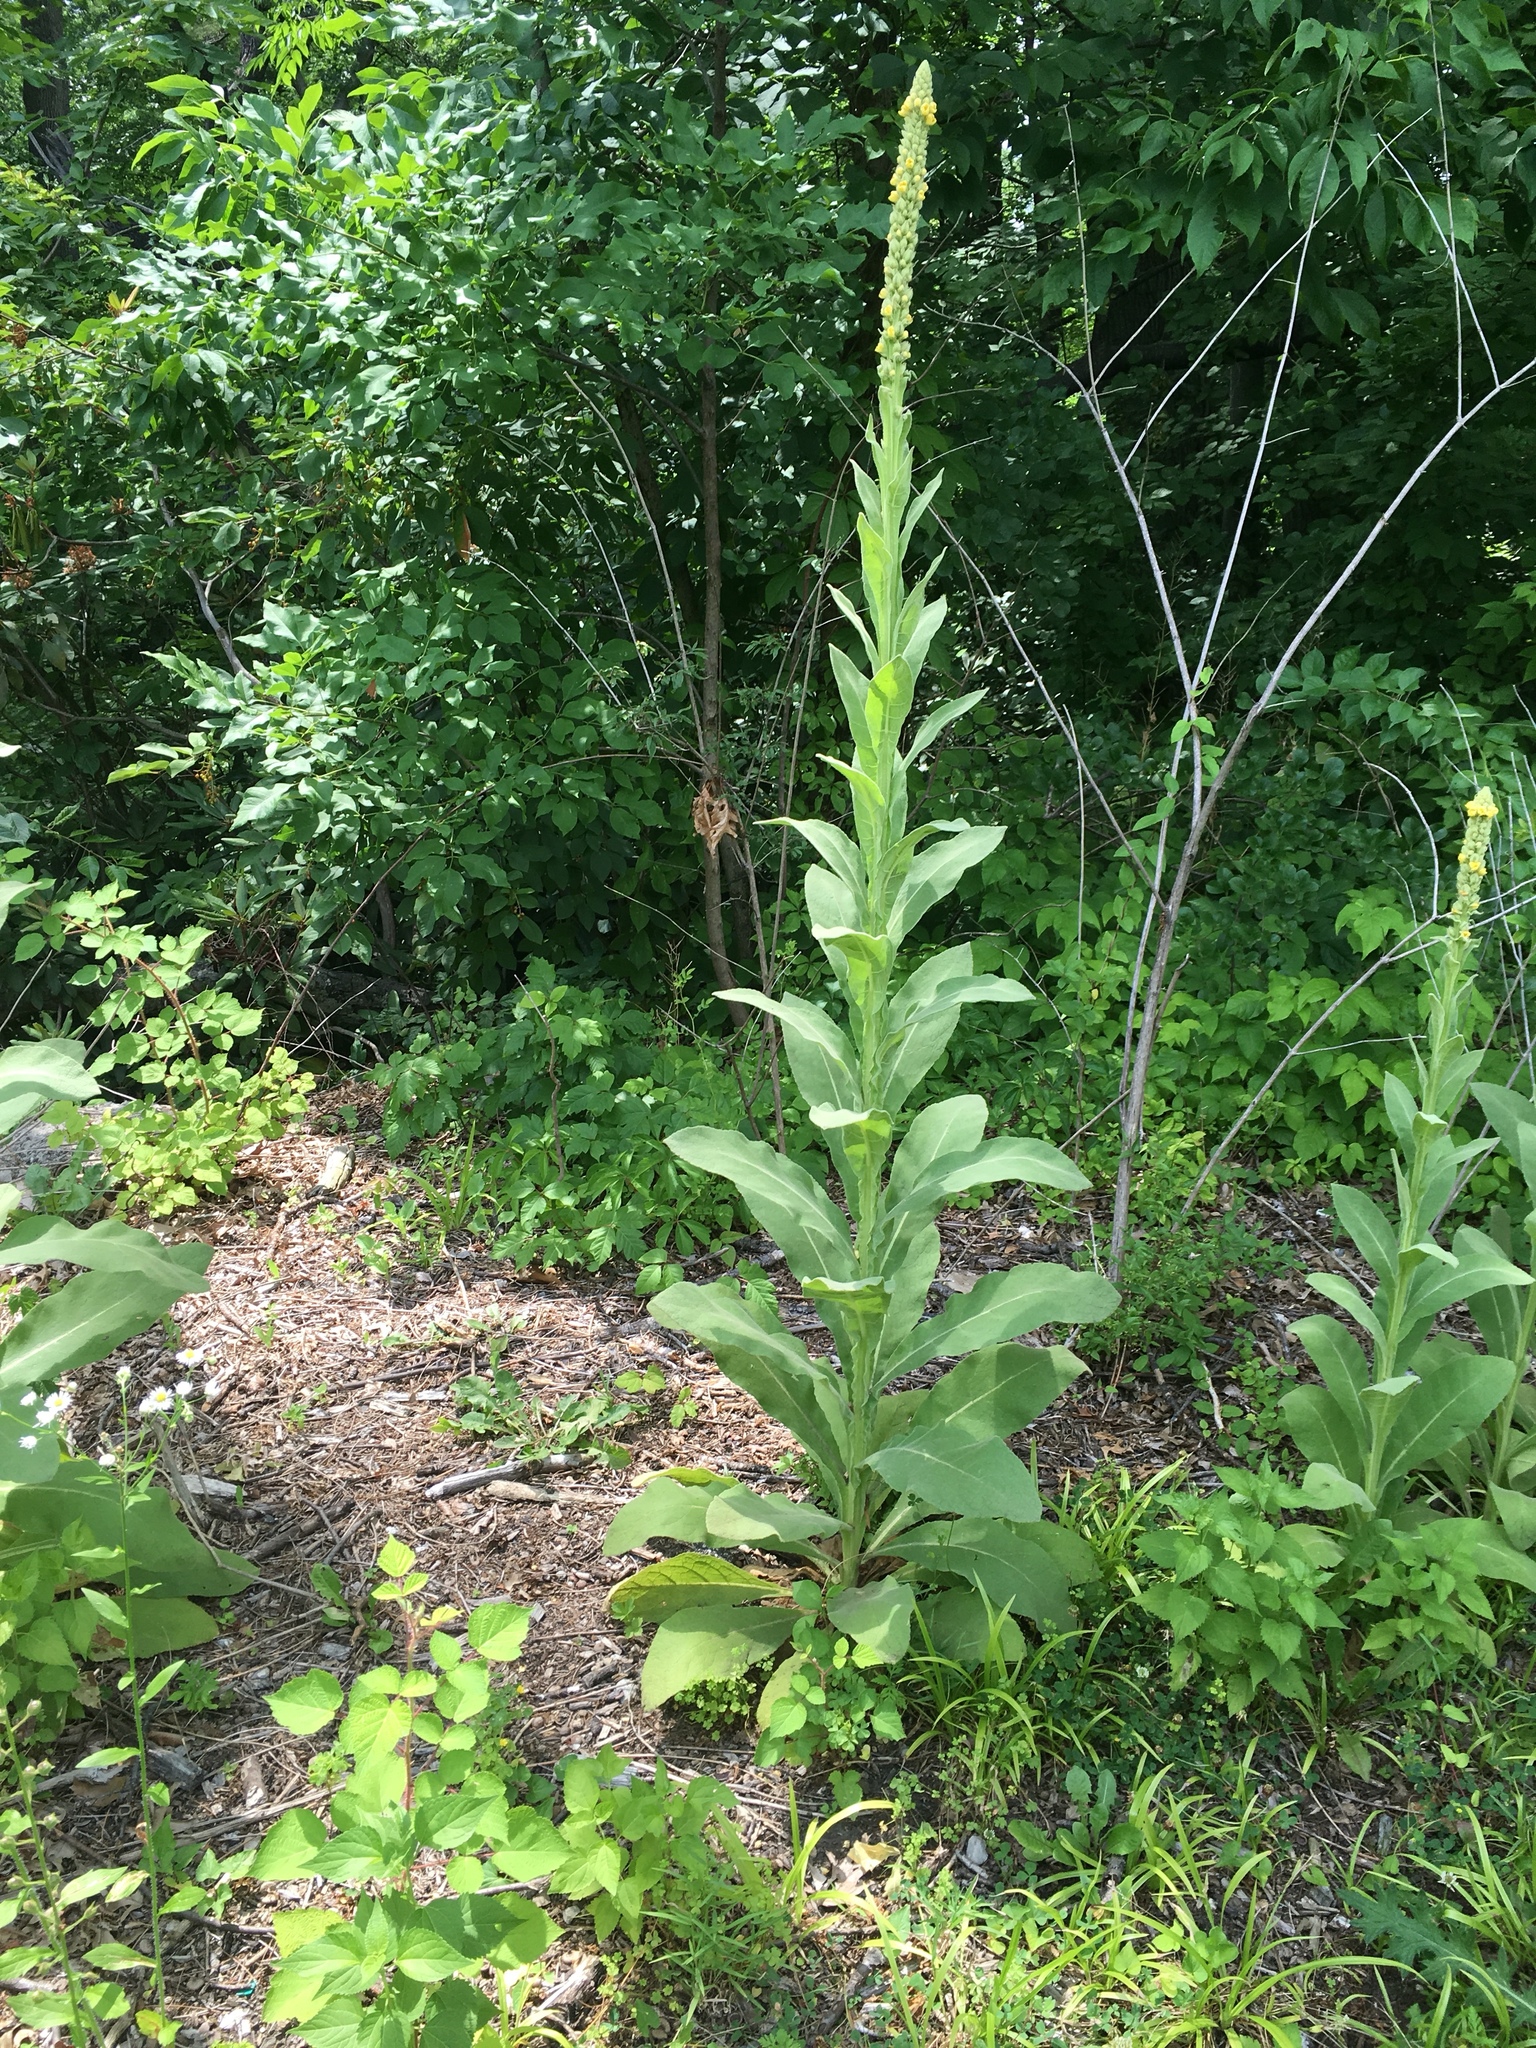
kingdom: Plantae
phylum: Tracheophyta
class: Magnoliopsida
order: Lamiales
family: Scrophulariaceae
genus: Verbascum
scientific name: Verbascum thapsus
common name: Common mullein
